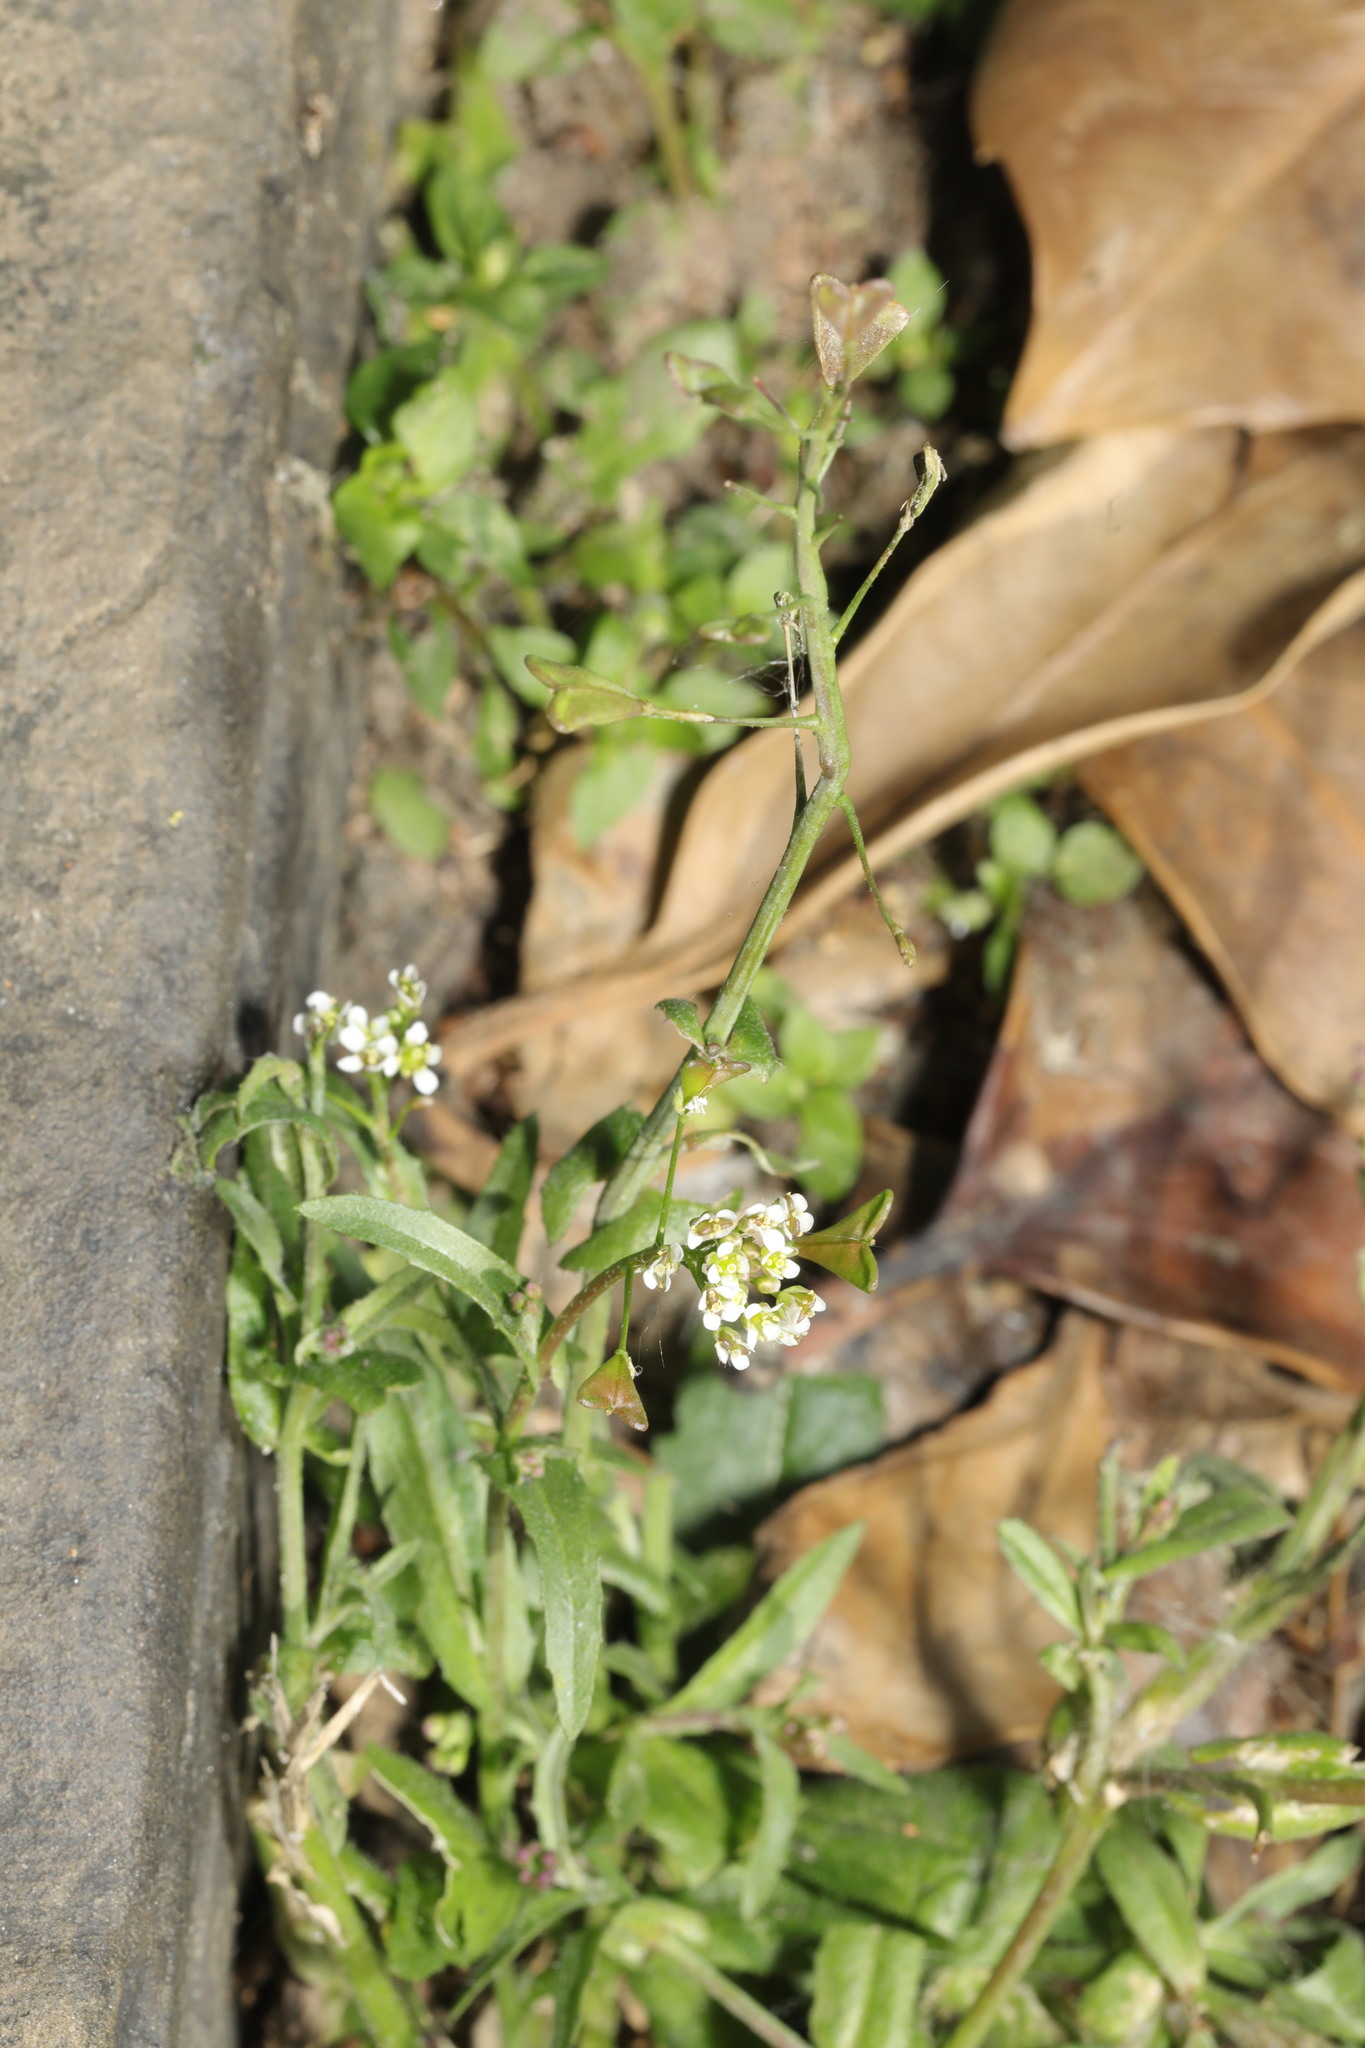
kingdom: Plantae
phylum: Tracheophyta
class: Magnoliopsida
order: Brassicales
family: Brassicaceae
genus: Capsella
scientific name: Capsella bursa-pastoris
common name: Shepherd's purse
